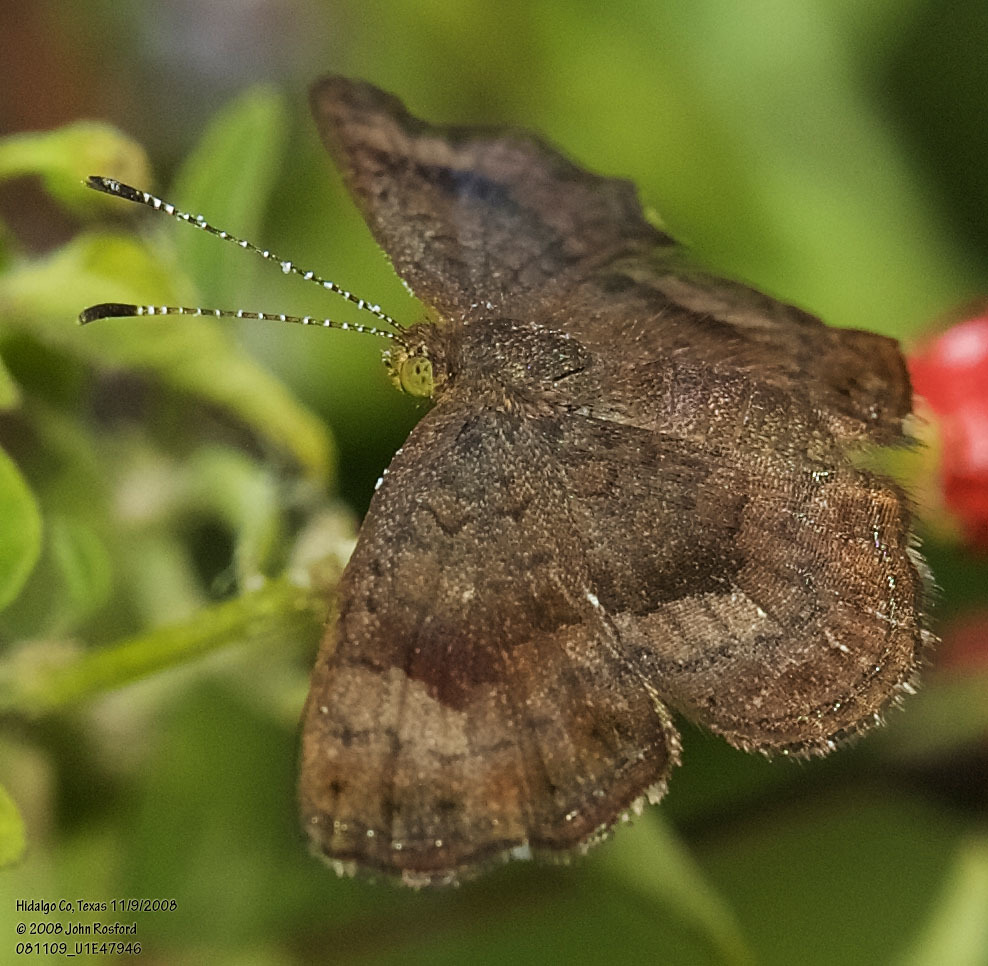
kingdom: Animalia
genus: Calephelis
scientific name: Calephelis nemesis
